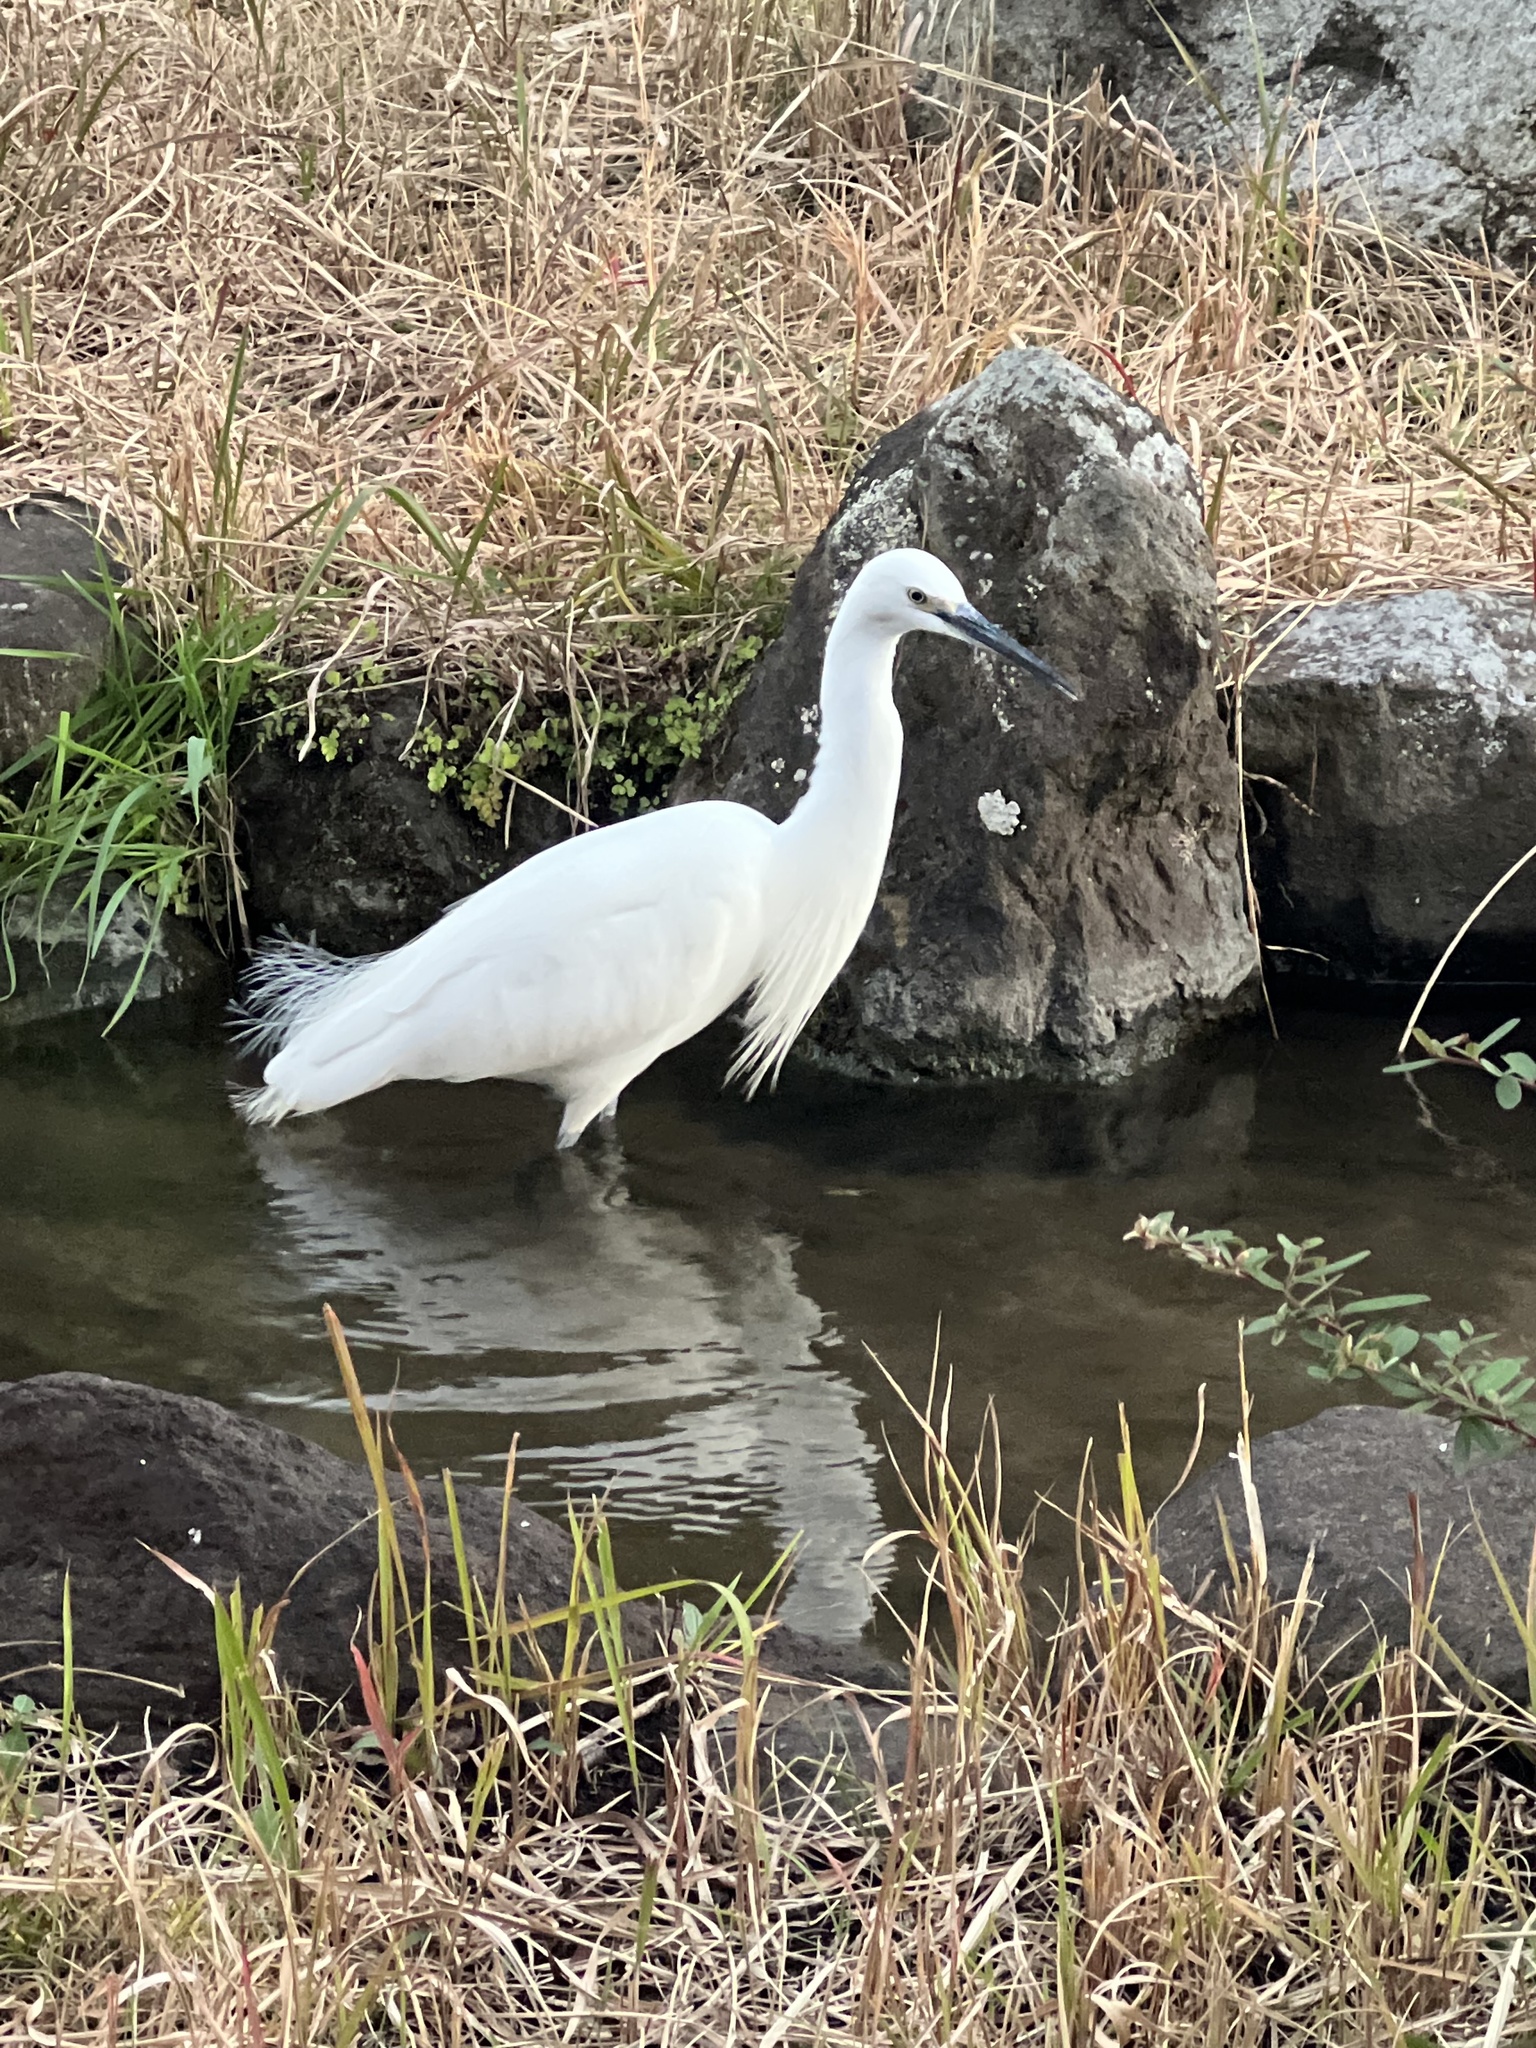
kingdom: Animalia
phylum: Chordata
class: Aves
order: Pelecaniformes
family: Ardeidae
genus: Egretta
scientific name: Egretta garzetta
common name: Little egret
